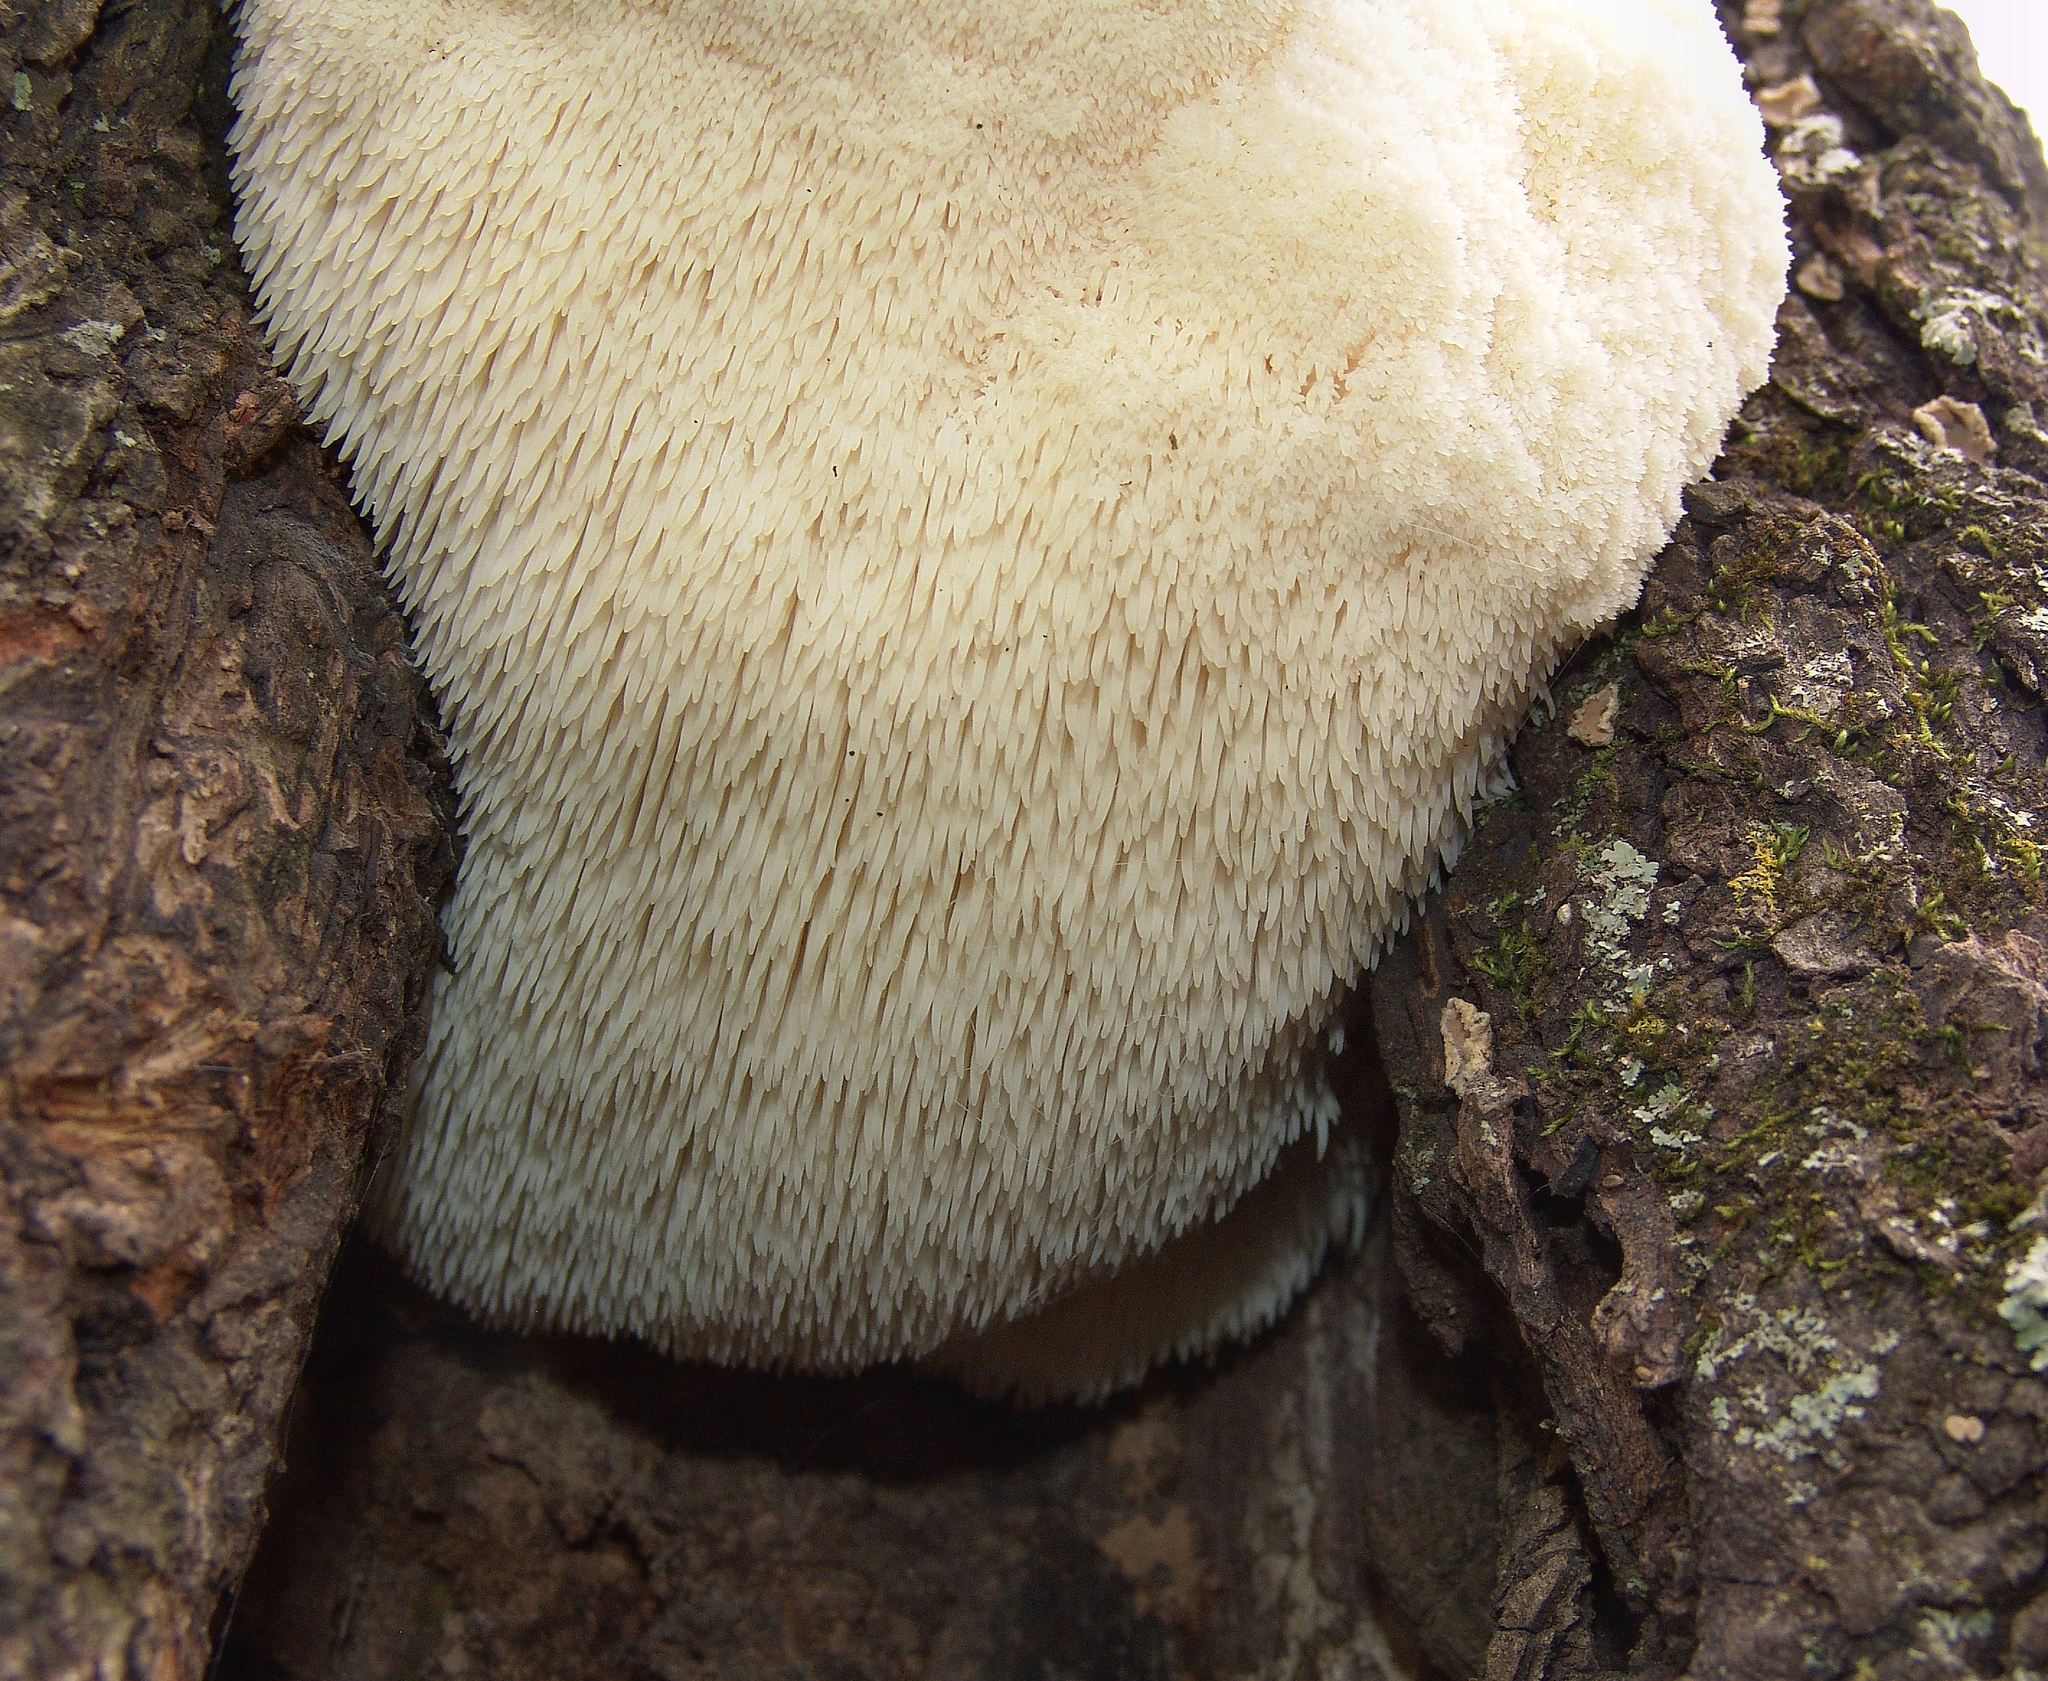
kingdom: Fungi
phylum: Basidiomycota
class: Agaricomycetes
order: Russulales
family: Hericiaceae
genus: Hericium
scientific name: Hericium erinaceus
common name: Bearded tooth
